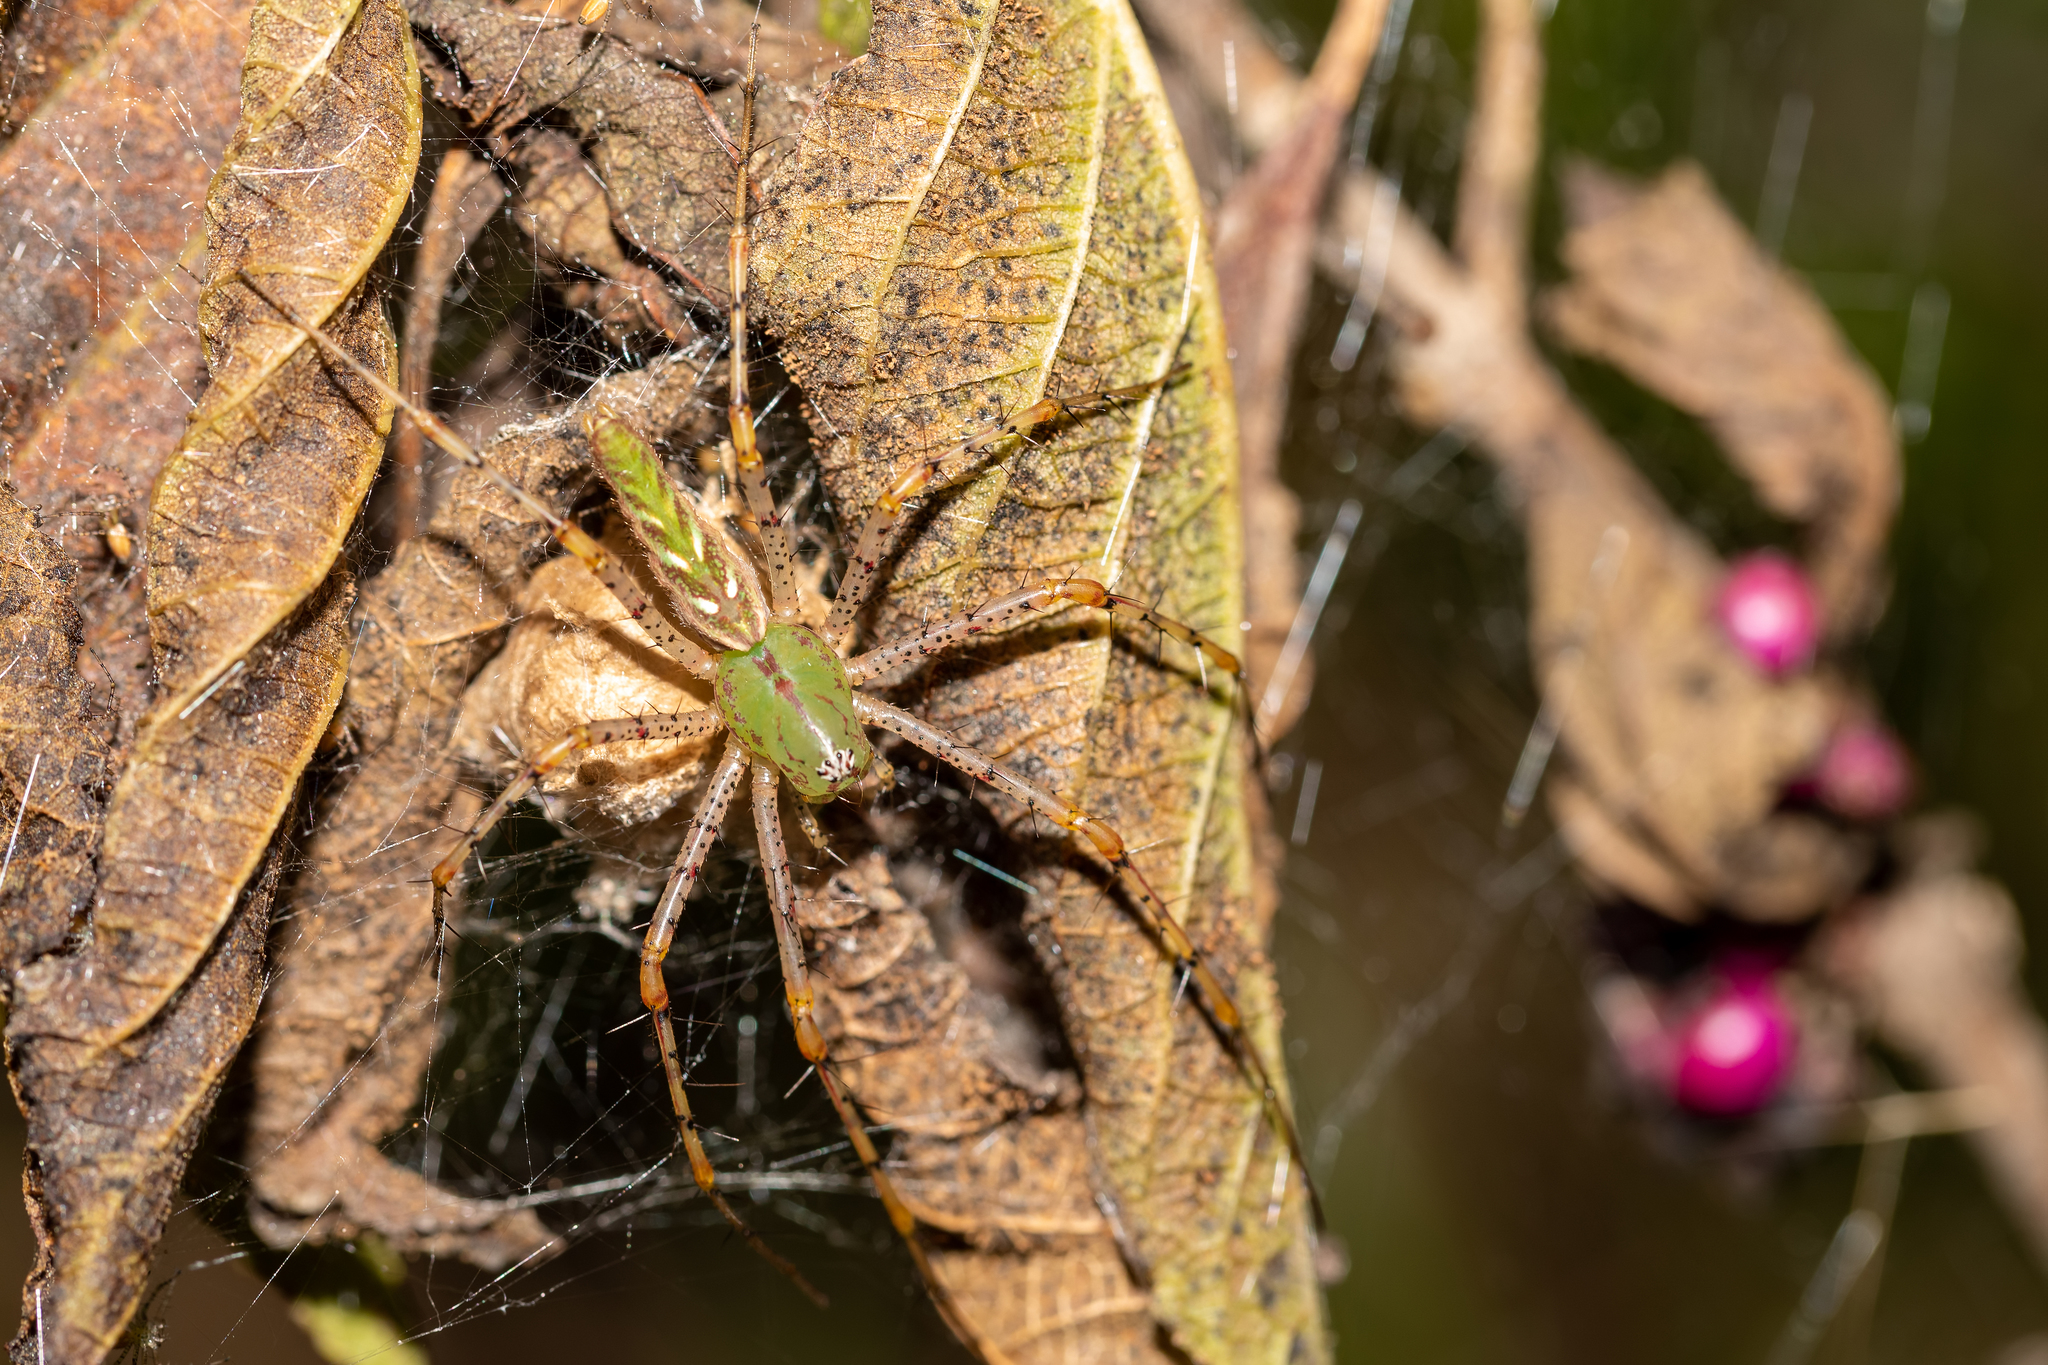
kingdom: Animalia
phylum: Arthropoda
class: Arachnida
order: Araneae
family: Oxyopidae
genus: Peucetia
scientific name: Peucetia viridans
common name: Lynx spiders
